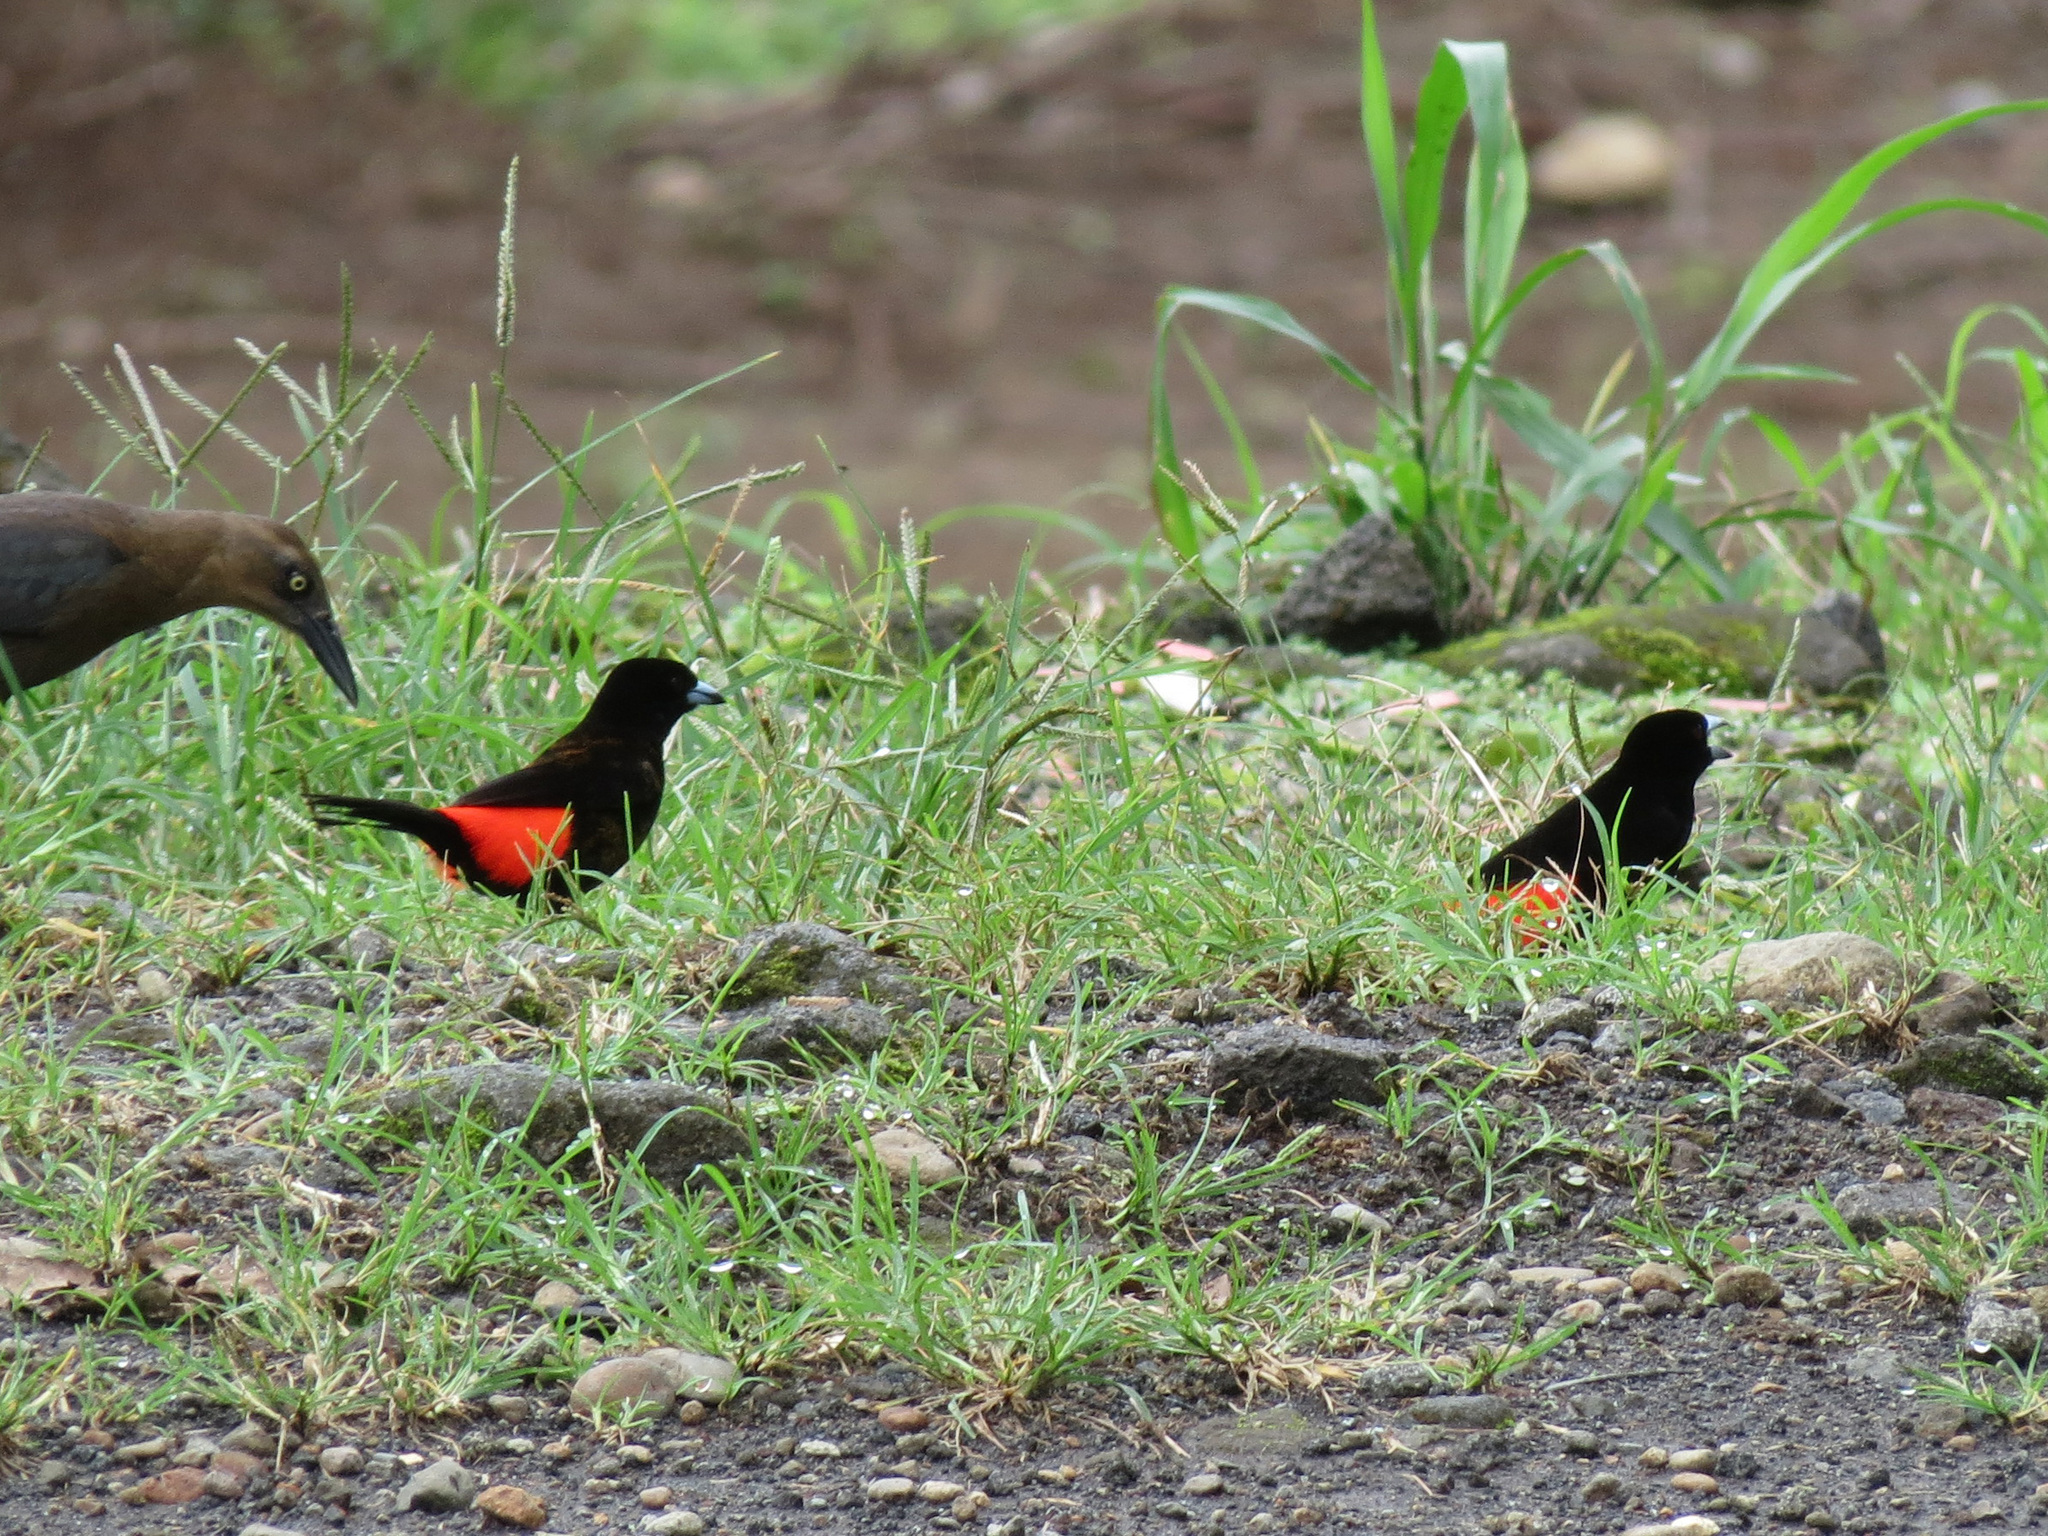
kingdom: Animalia
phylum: Chordata
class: Aves
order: Passeriformes
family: Thraupidae
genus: Ramphocelus
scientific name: Ramphocelus passerinii
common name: Passerini's tanager
